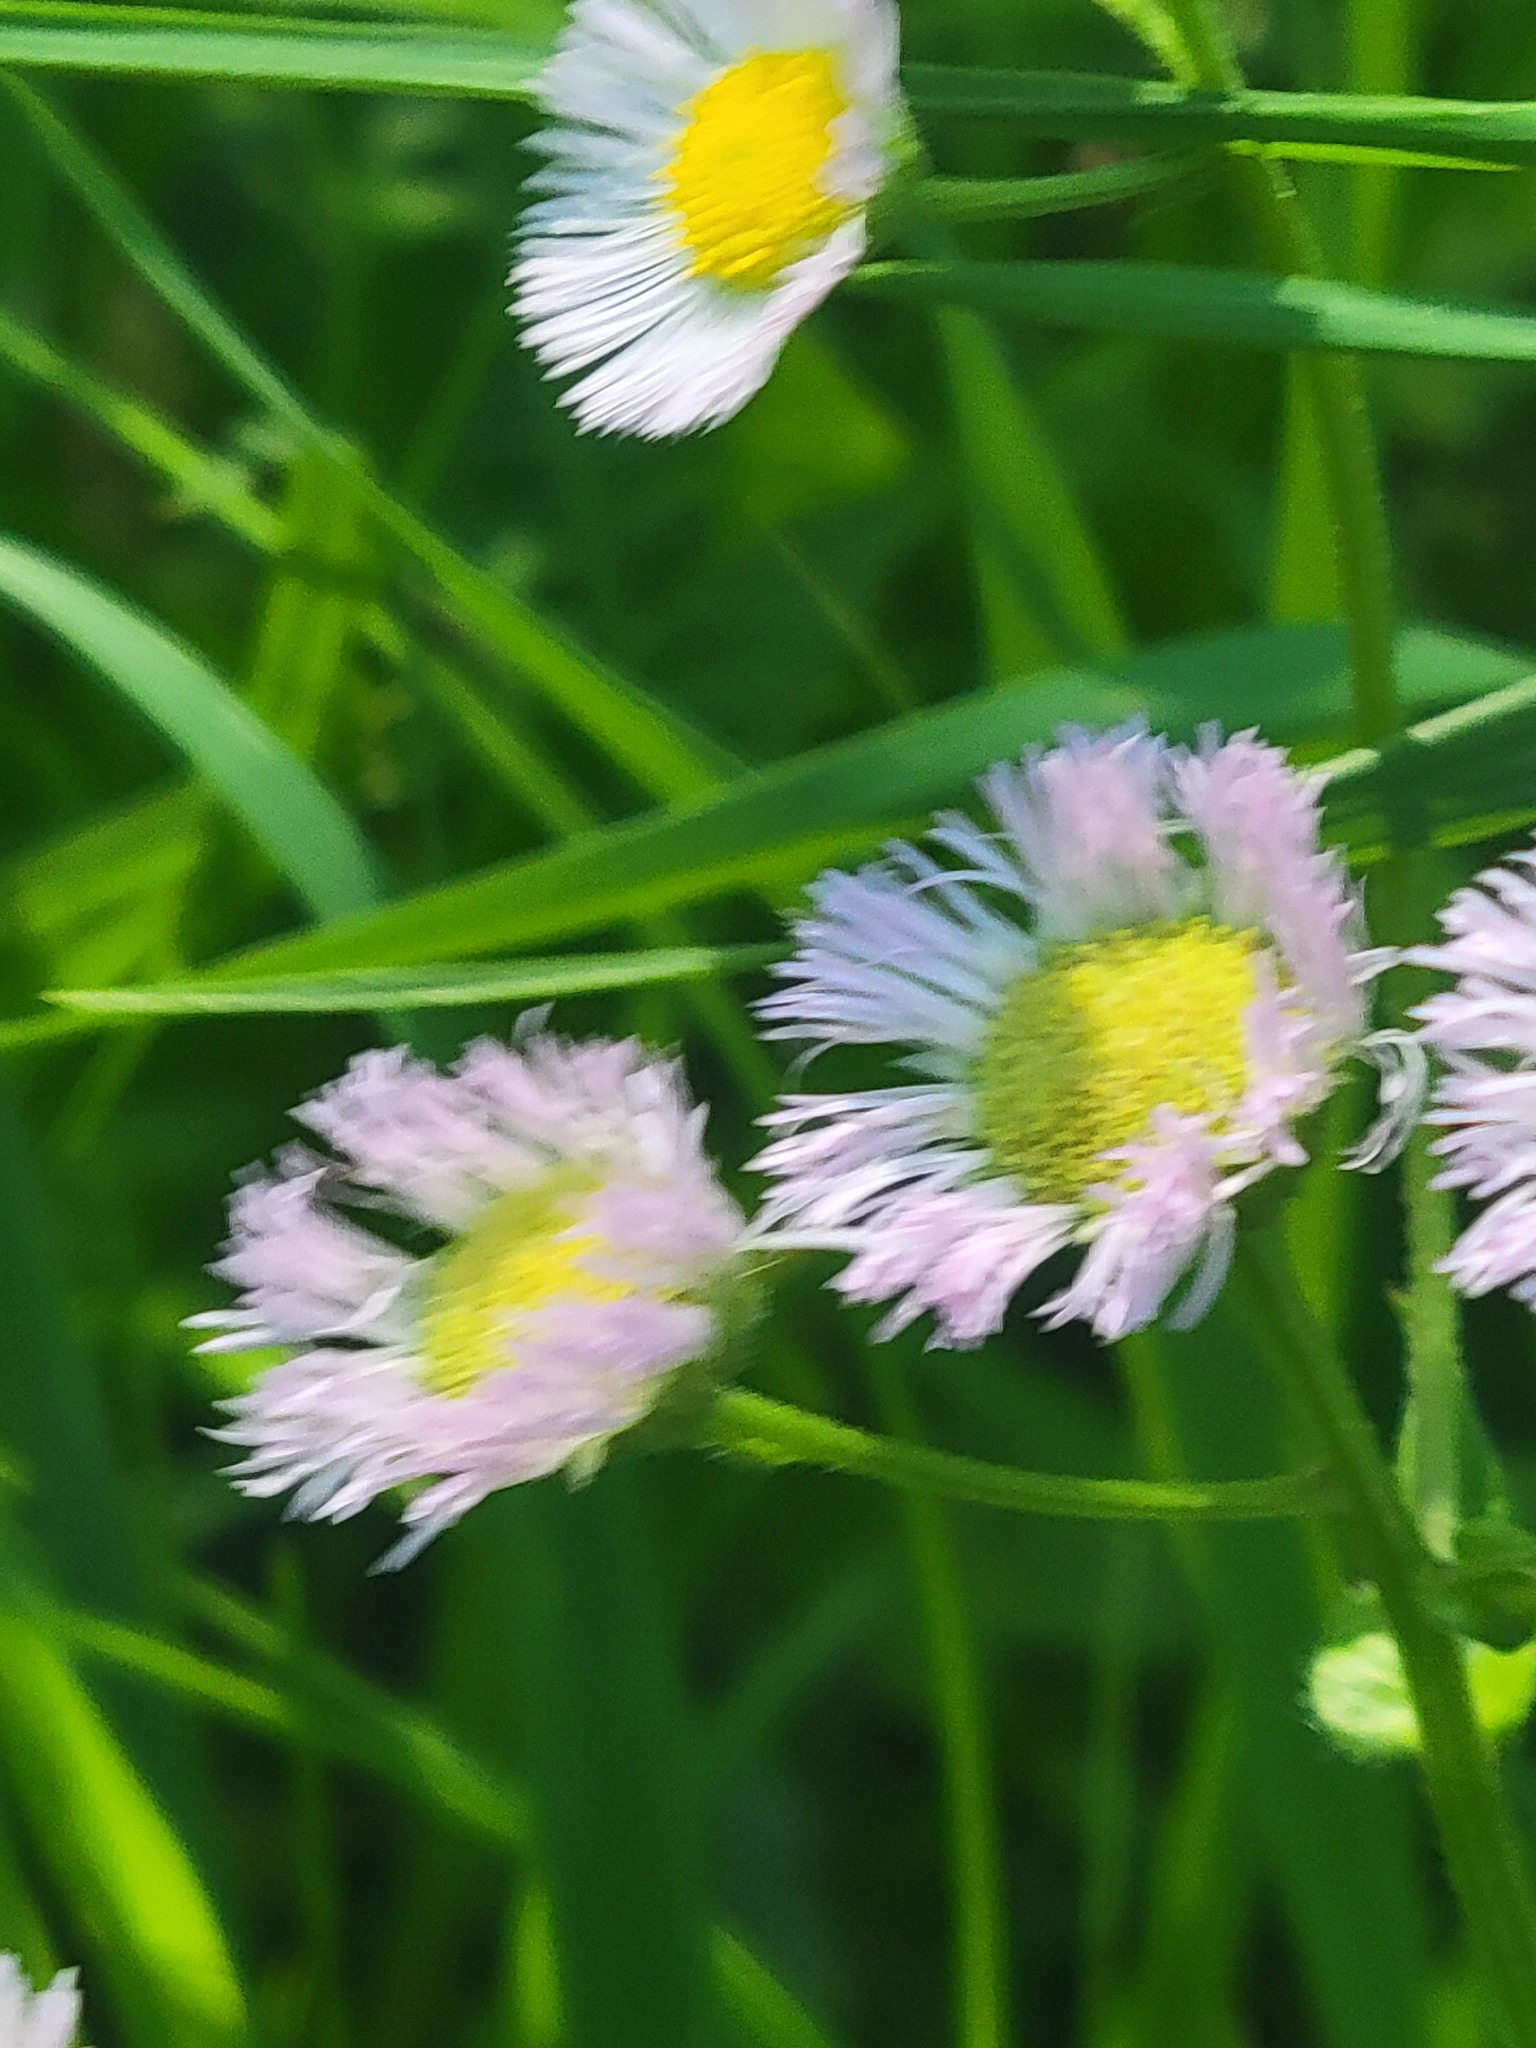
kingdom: Plantae
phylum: Tracheophyta
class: Magnoliopsida
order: Asterales
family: Asteraceae
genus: Erigeron
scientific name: Erigeron philadelphicus
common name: Robin's-plantain
